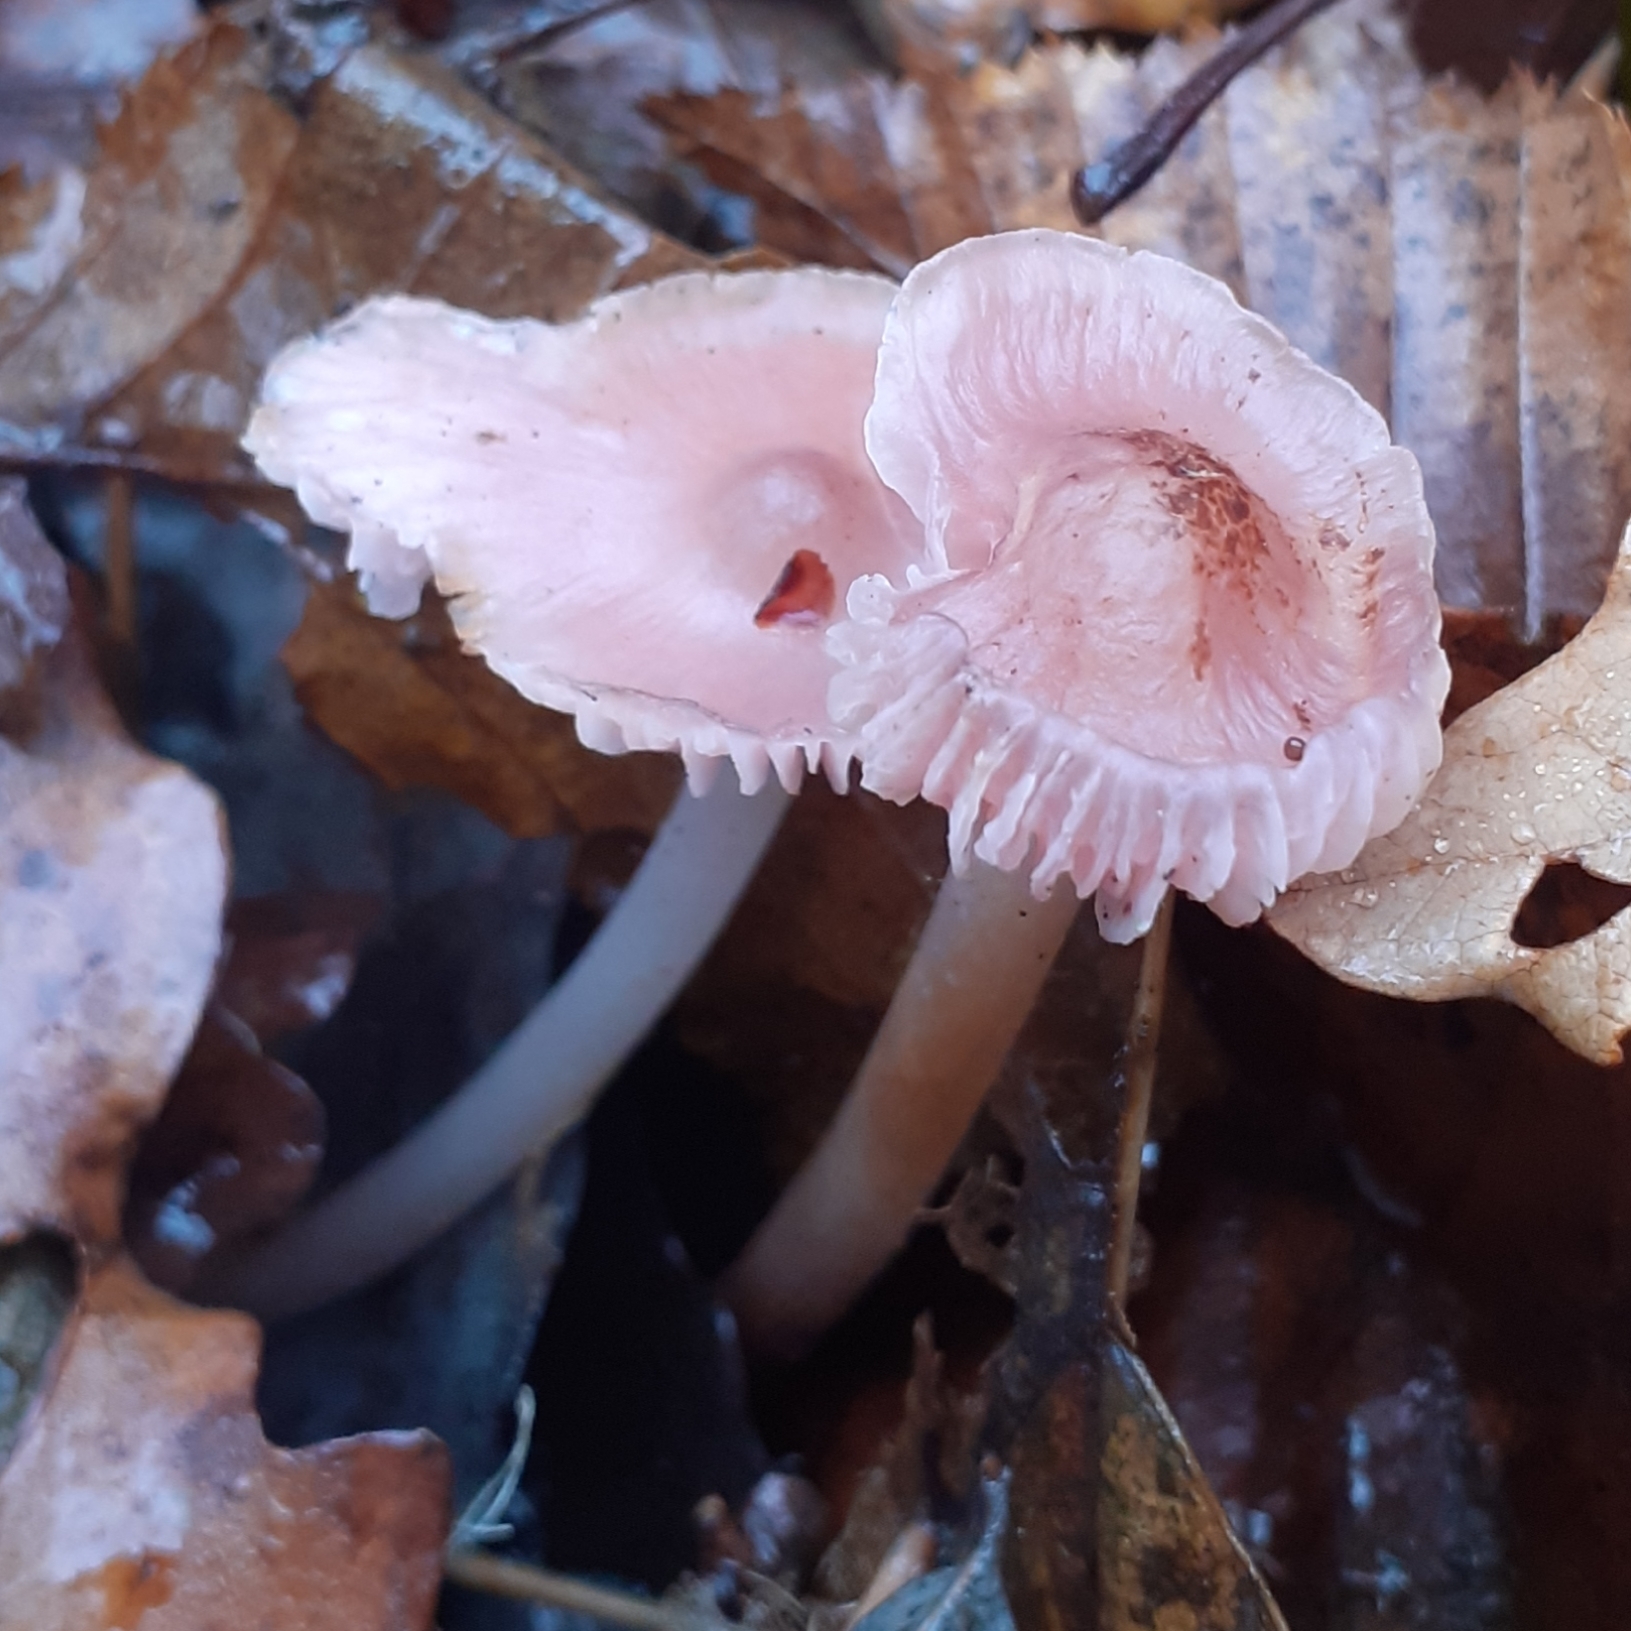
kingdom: Fungi
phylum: Basidiomycota
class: Agaricomycetes
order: Agaricales
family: Mycenaceae
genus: Mycena
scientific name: Mycena rosea
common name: Rosy bonnet
